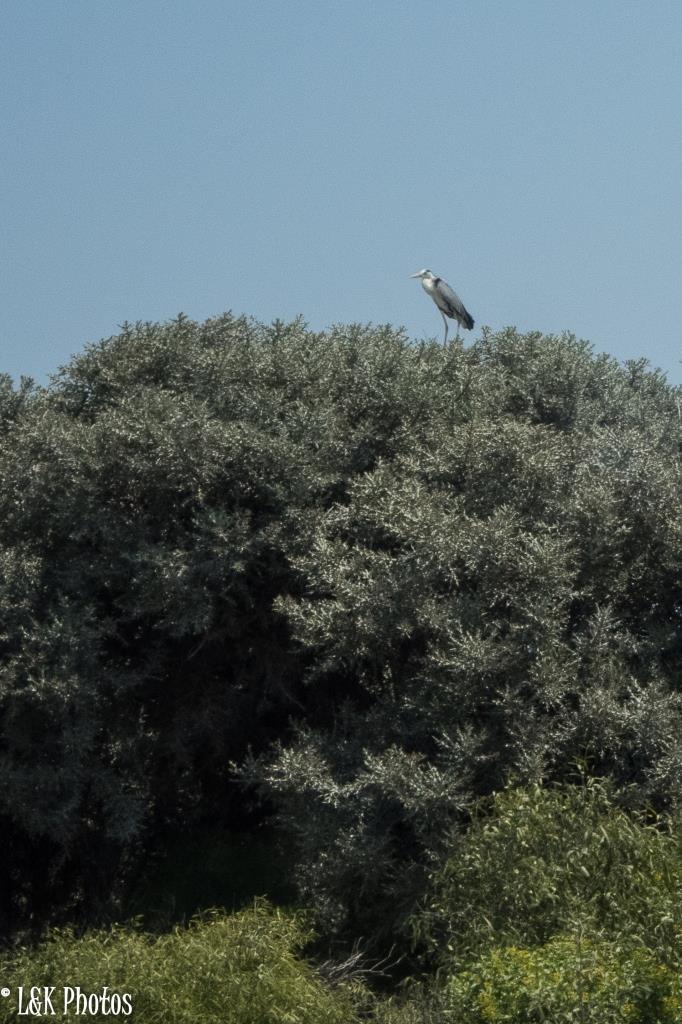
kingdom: Animalia
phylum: Chordata
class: Aves
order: Pelecaniformes
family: Ardeidae
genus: Ardea
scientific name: Ardea cinerea
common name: Grey heron
